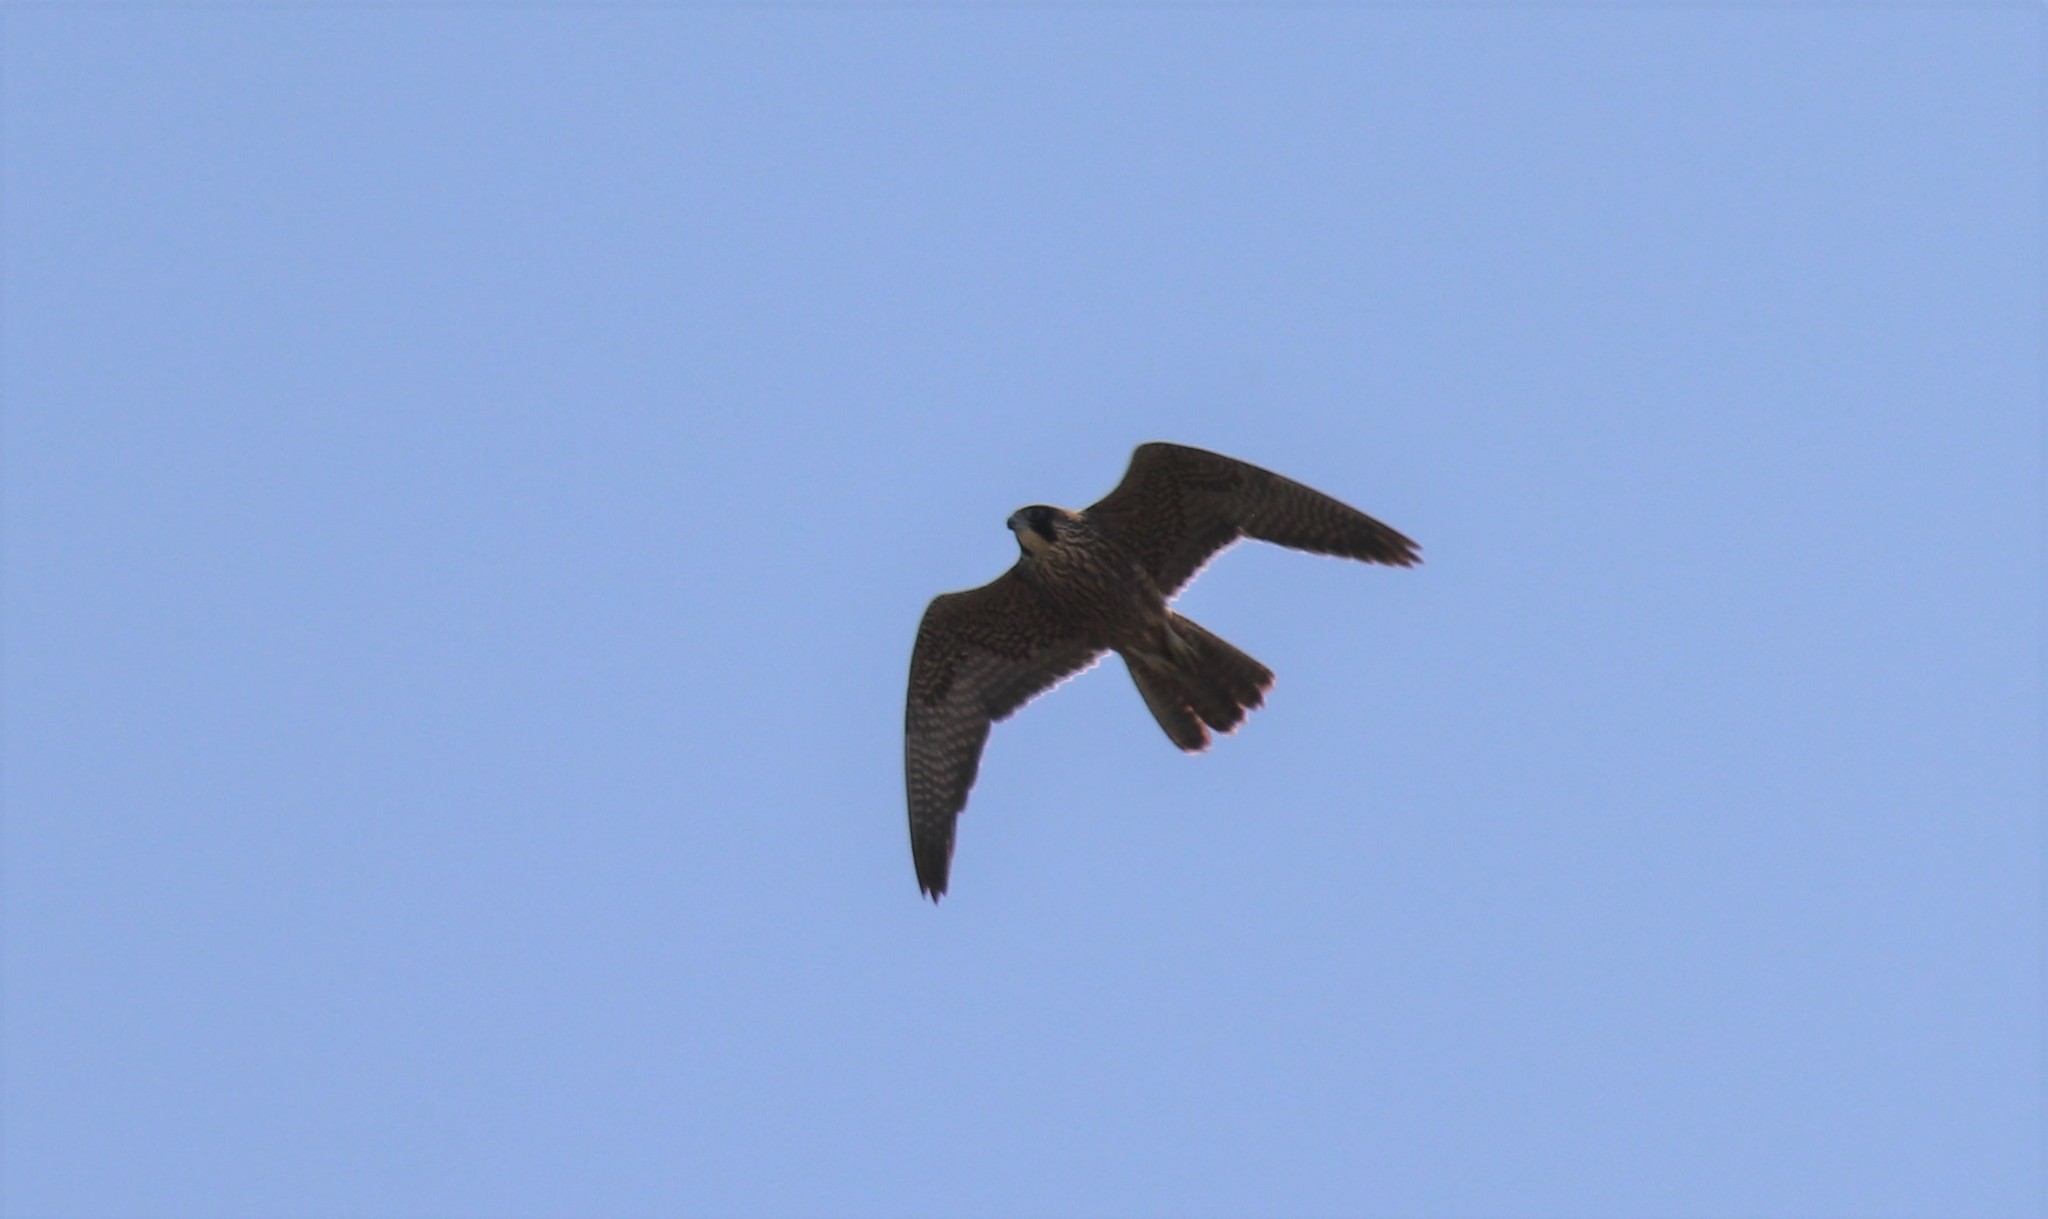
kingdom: Animalia
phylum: Chordata
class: Aves
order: Falconiformes
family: Falconidae
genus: Falco
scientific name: Falco peregrinus
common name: Peregrine falcon
